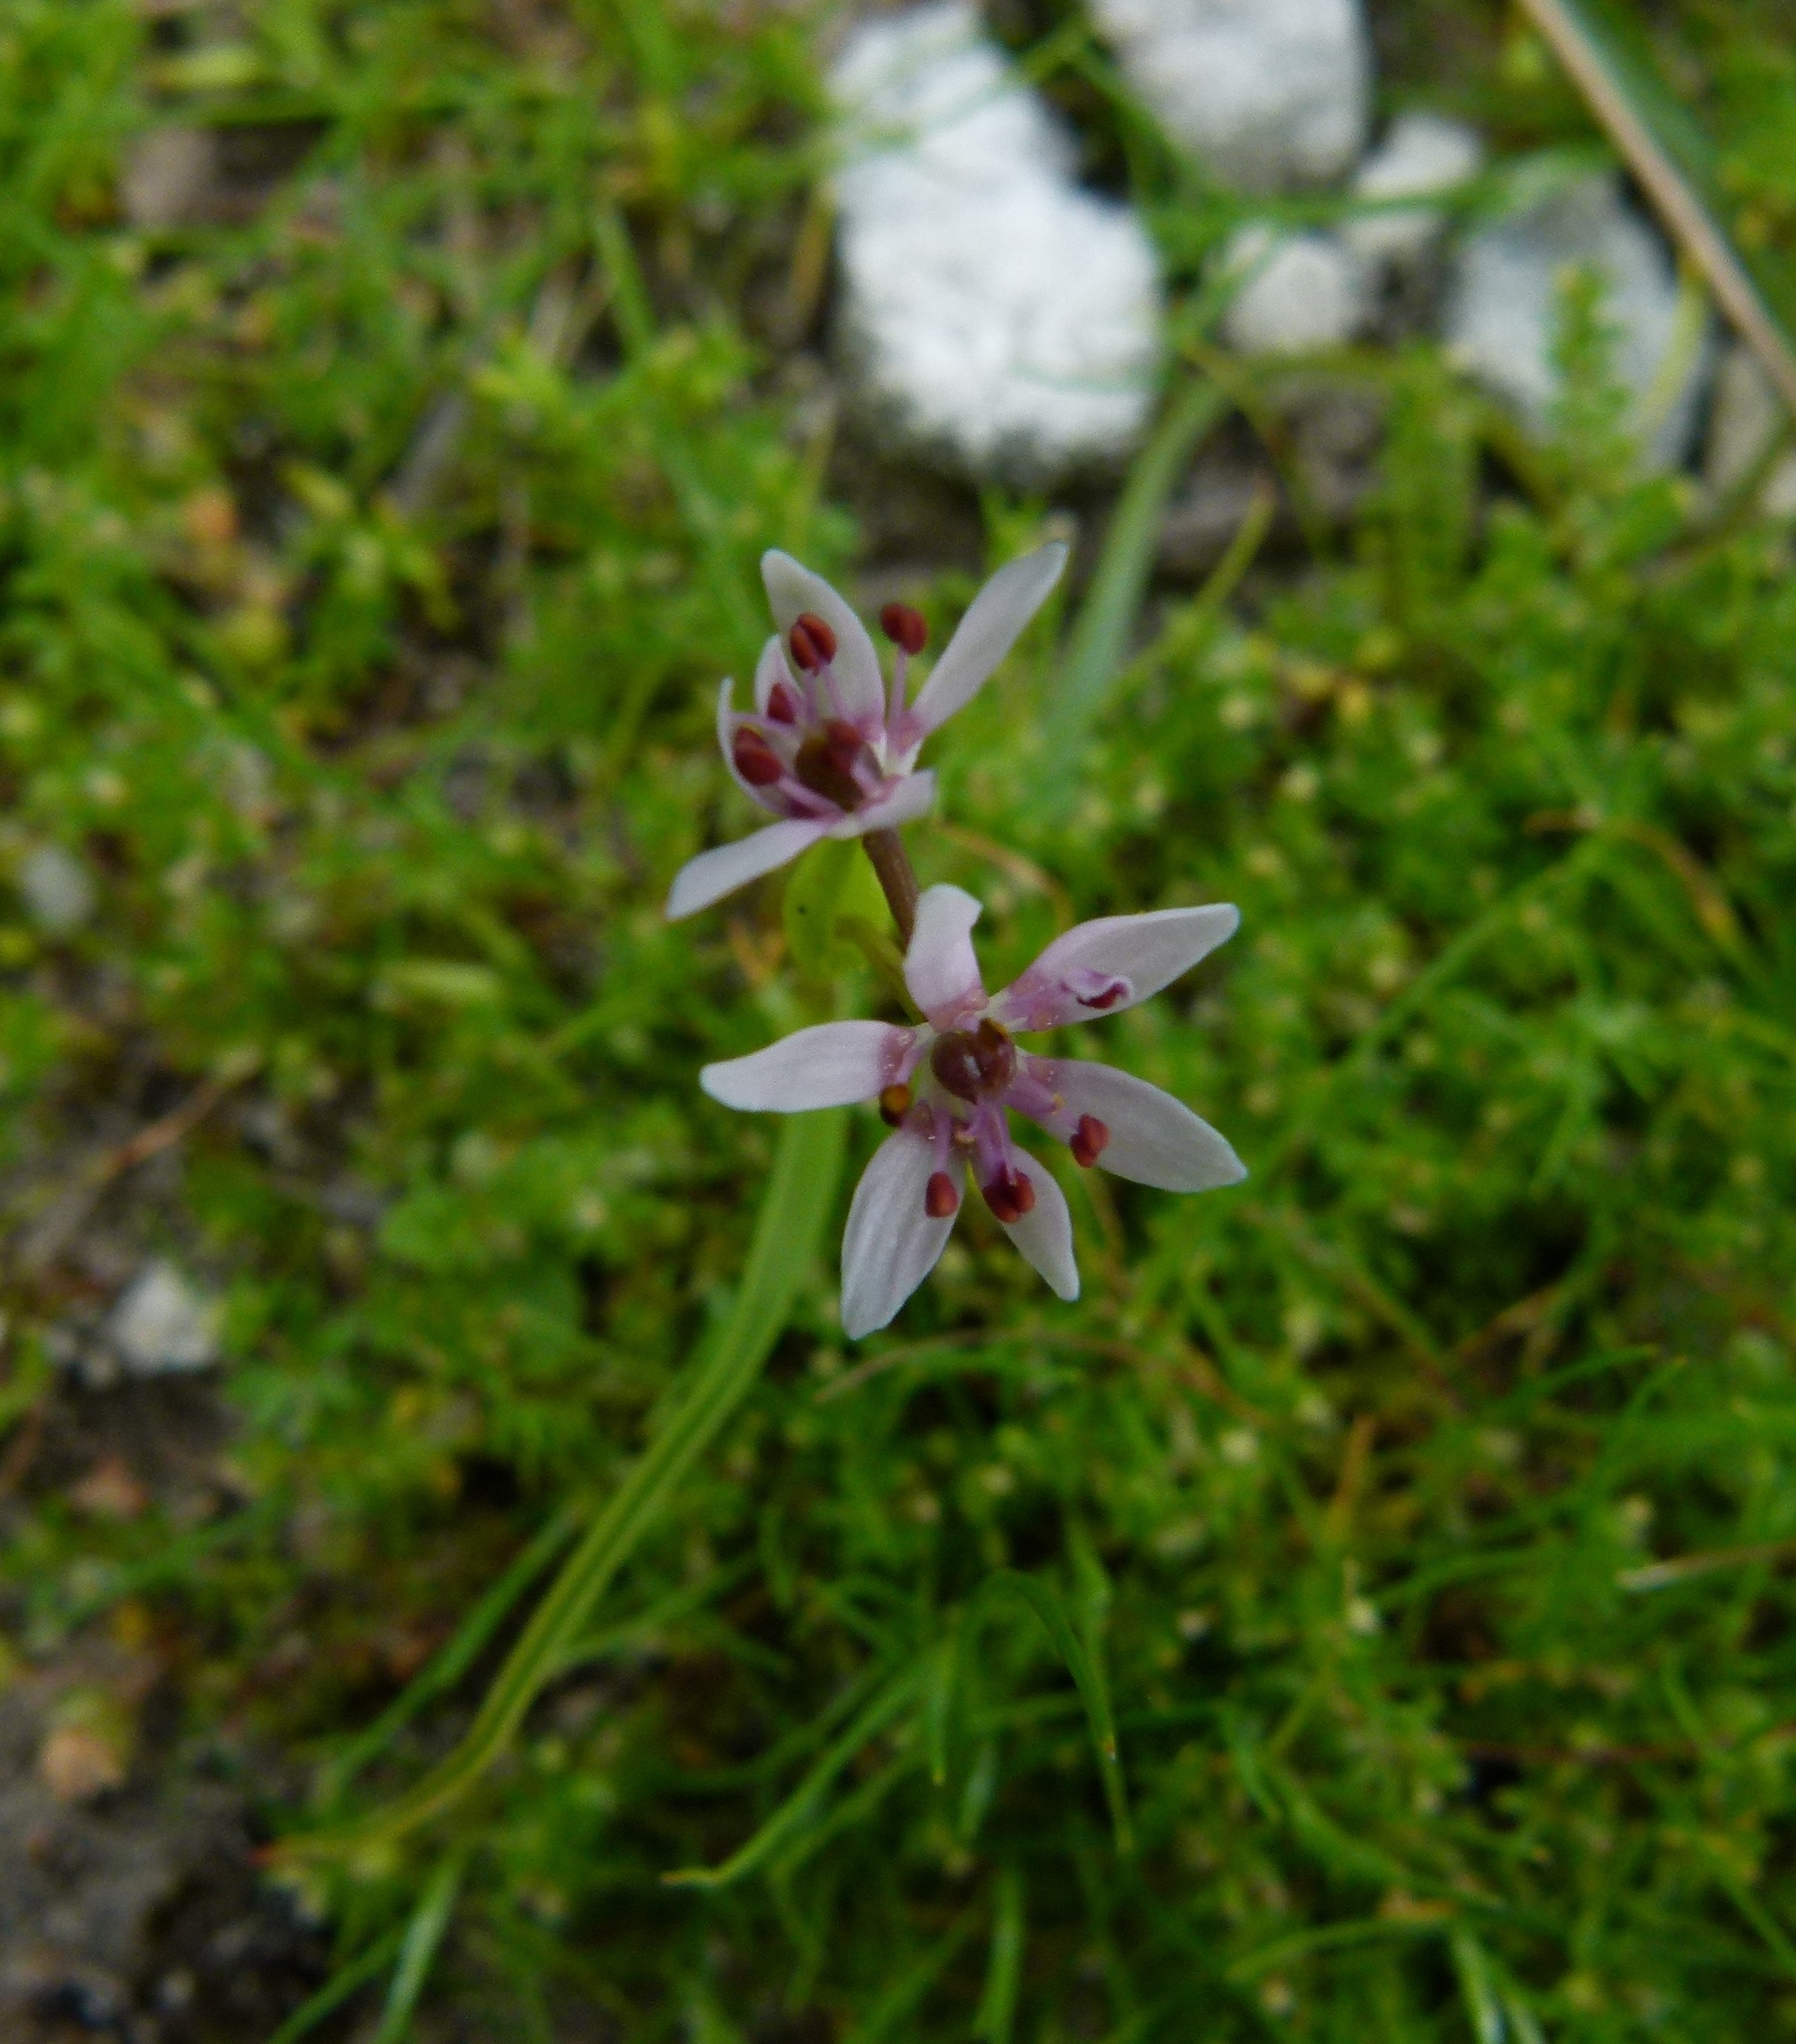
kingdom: Plantae
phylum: Tracheophyta
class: Liliopsida
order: Liliales
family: Colchicaceae
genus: Wurmbea
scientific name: Wurmbea monantha
